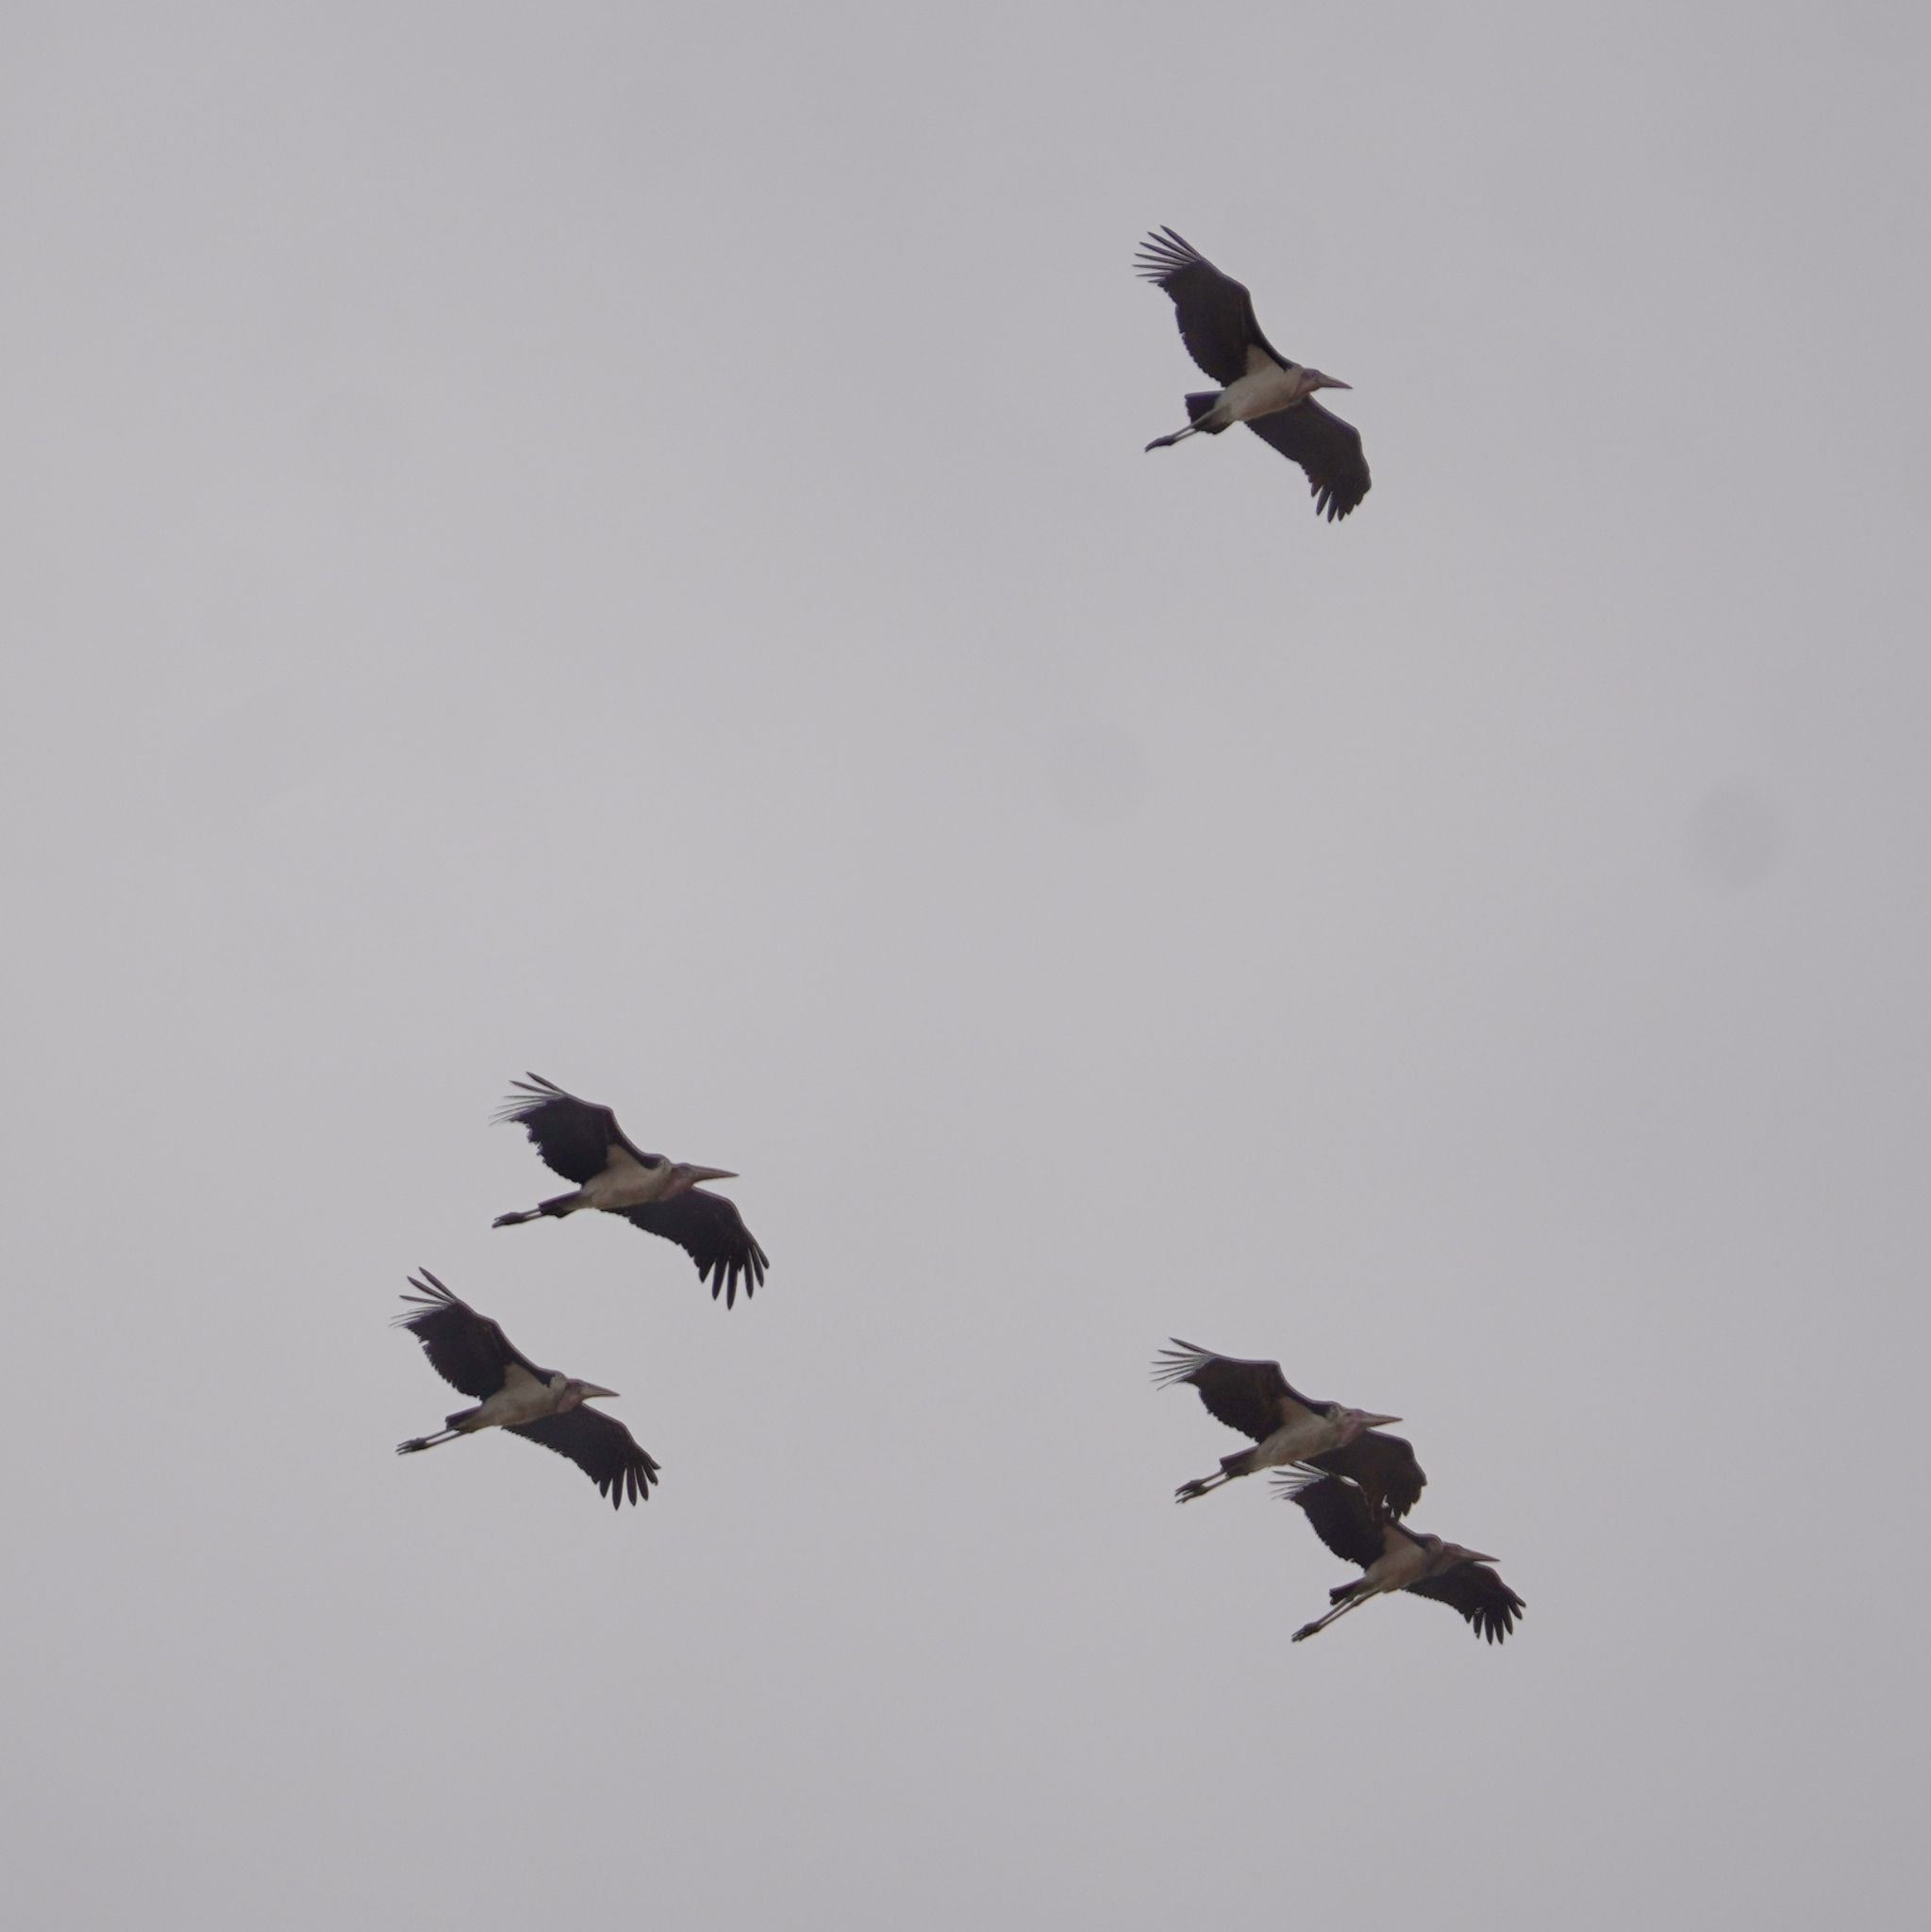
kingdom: Animalia
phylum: Chordata
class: Aves
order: Ciconiiformes
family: Ciconiidae
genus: Leptoptilos
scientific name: Leptoptilos crumenifer
